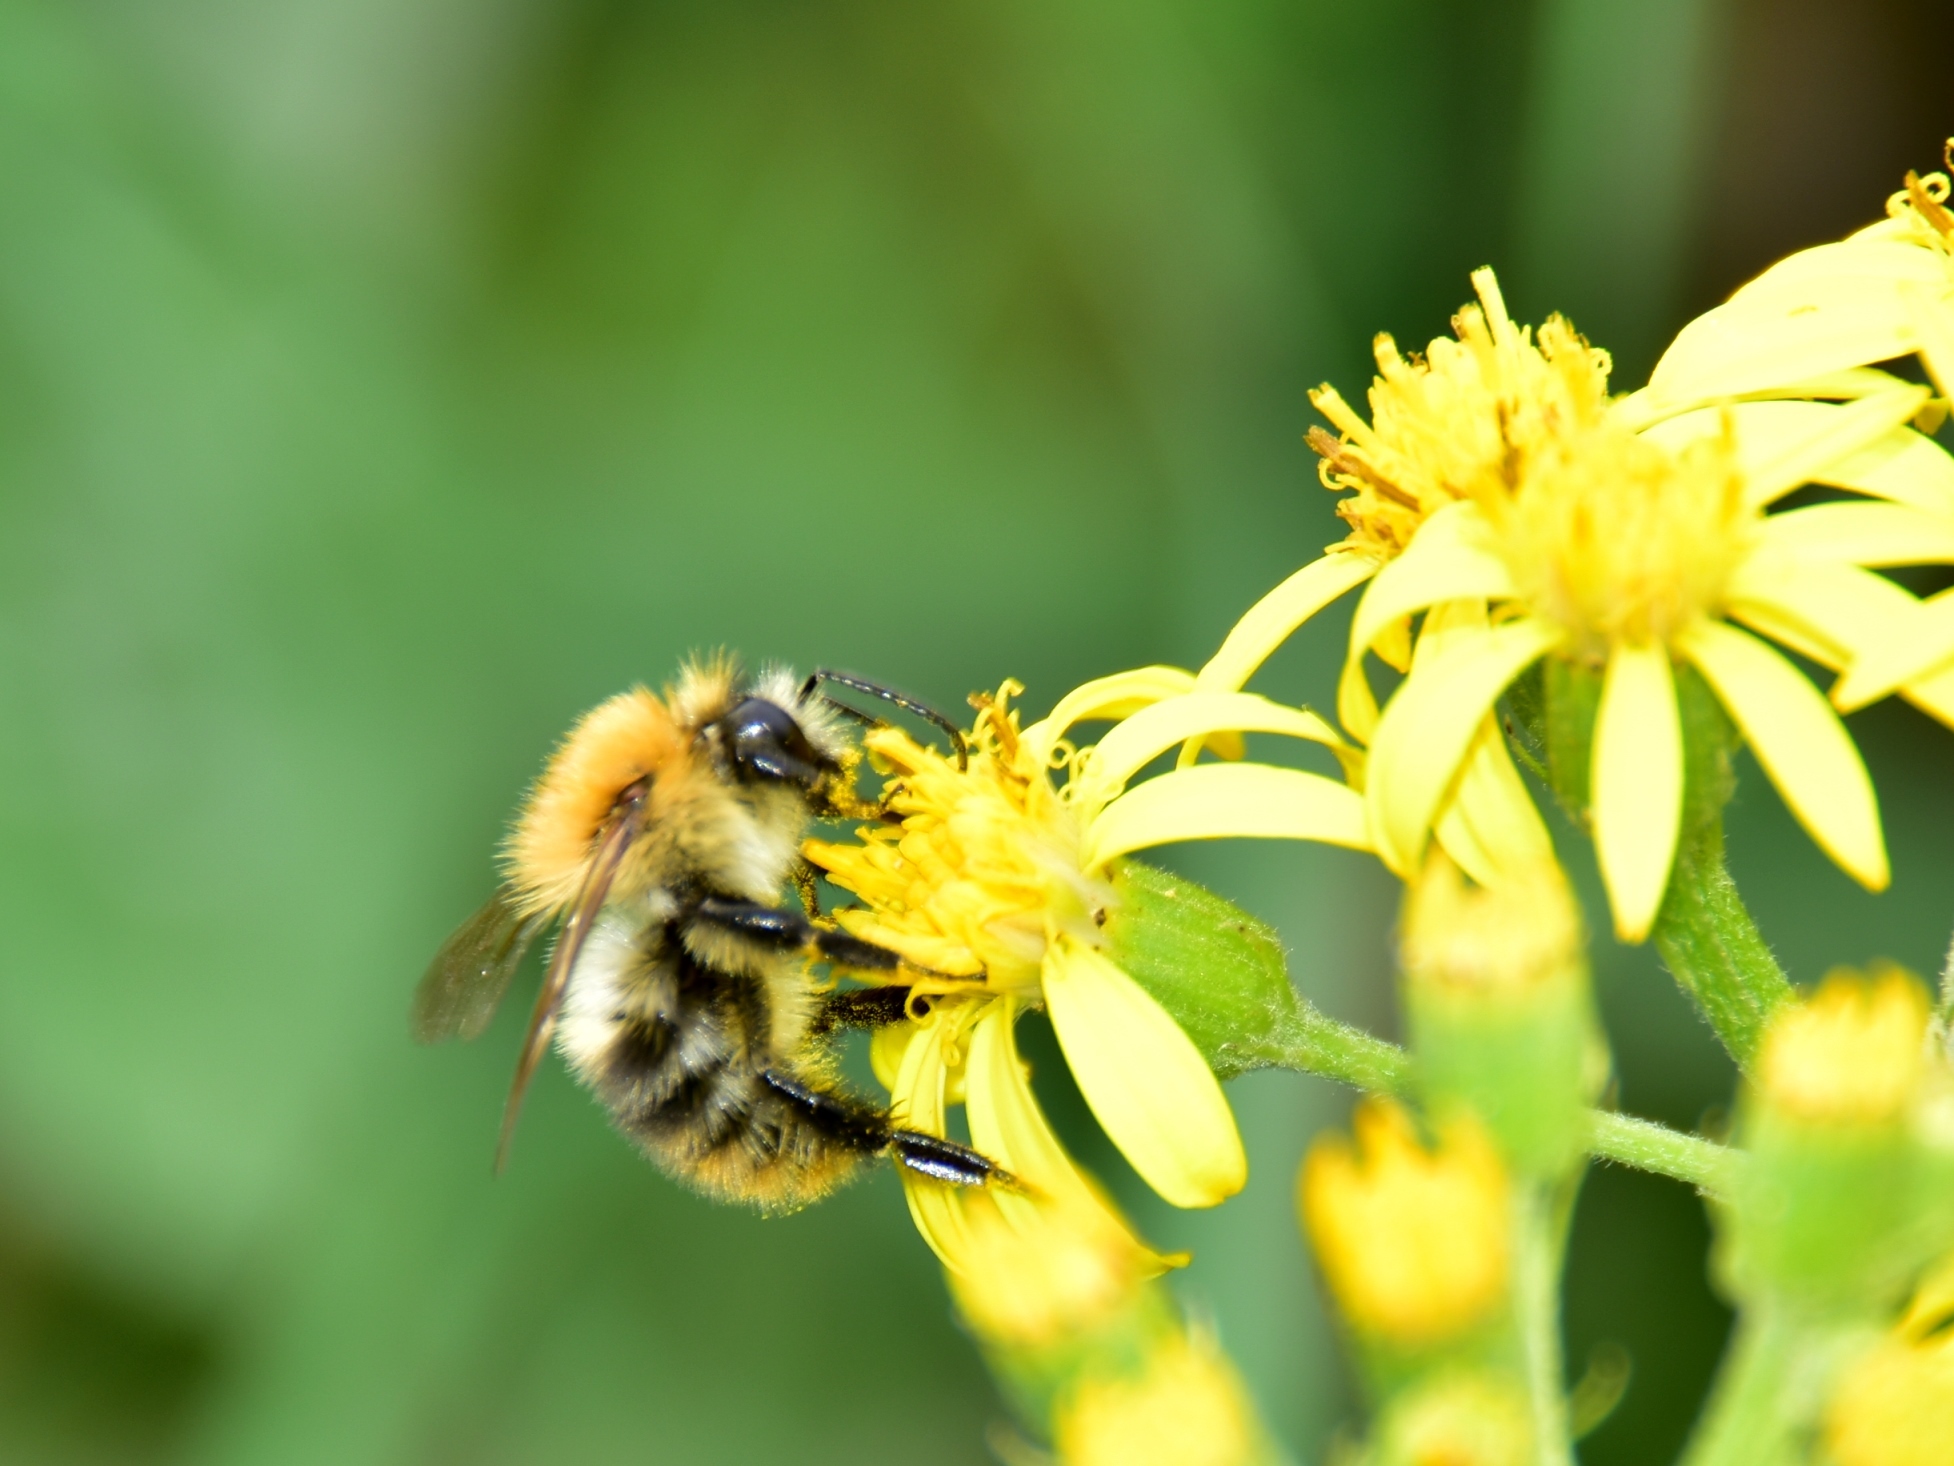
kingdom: Animalia
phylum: Arthropoda
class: Insecta
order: Hymenoptera
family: Apidae
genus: Bombus
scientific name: Bombus pascuorum
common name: Common carder bee
